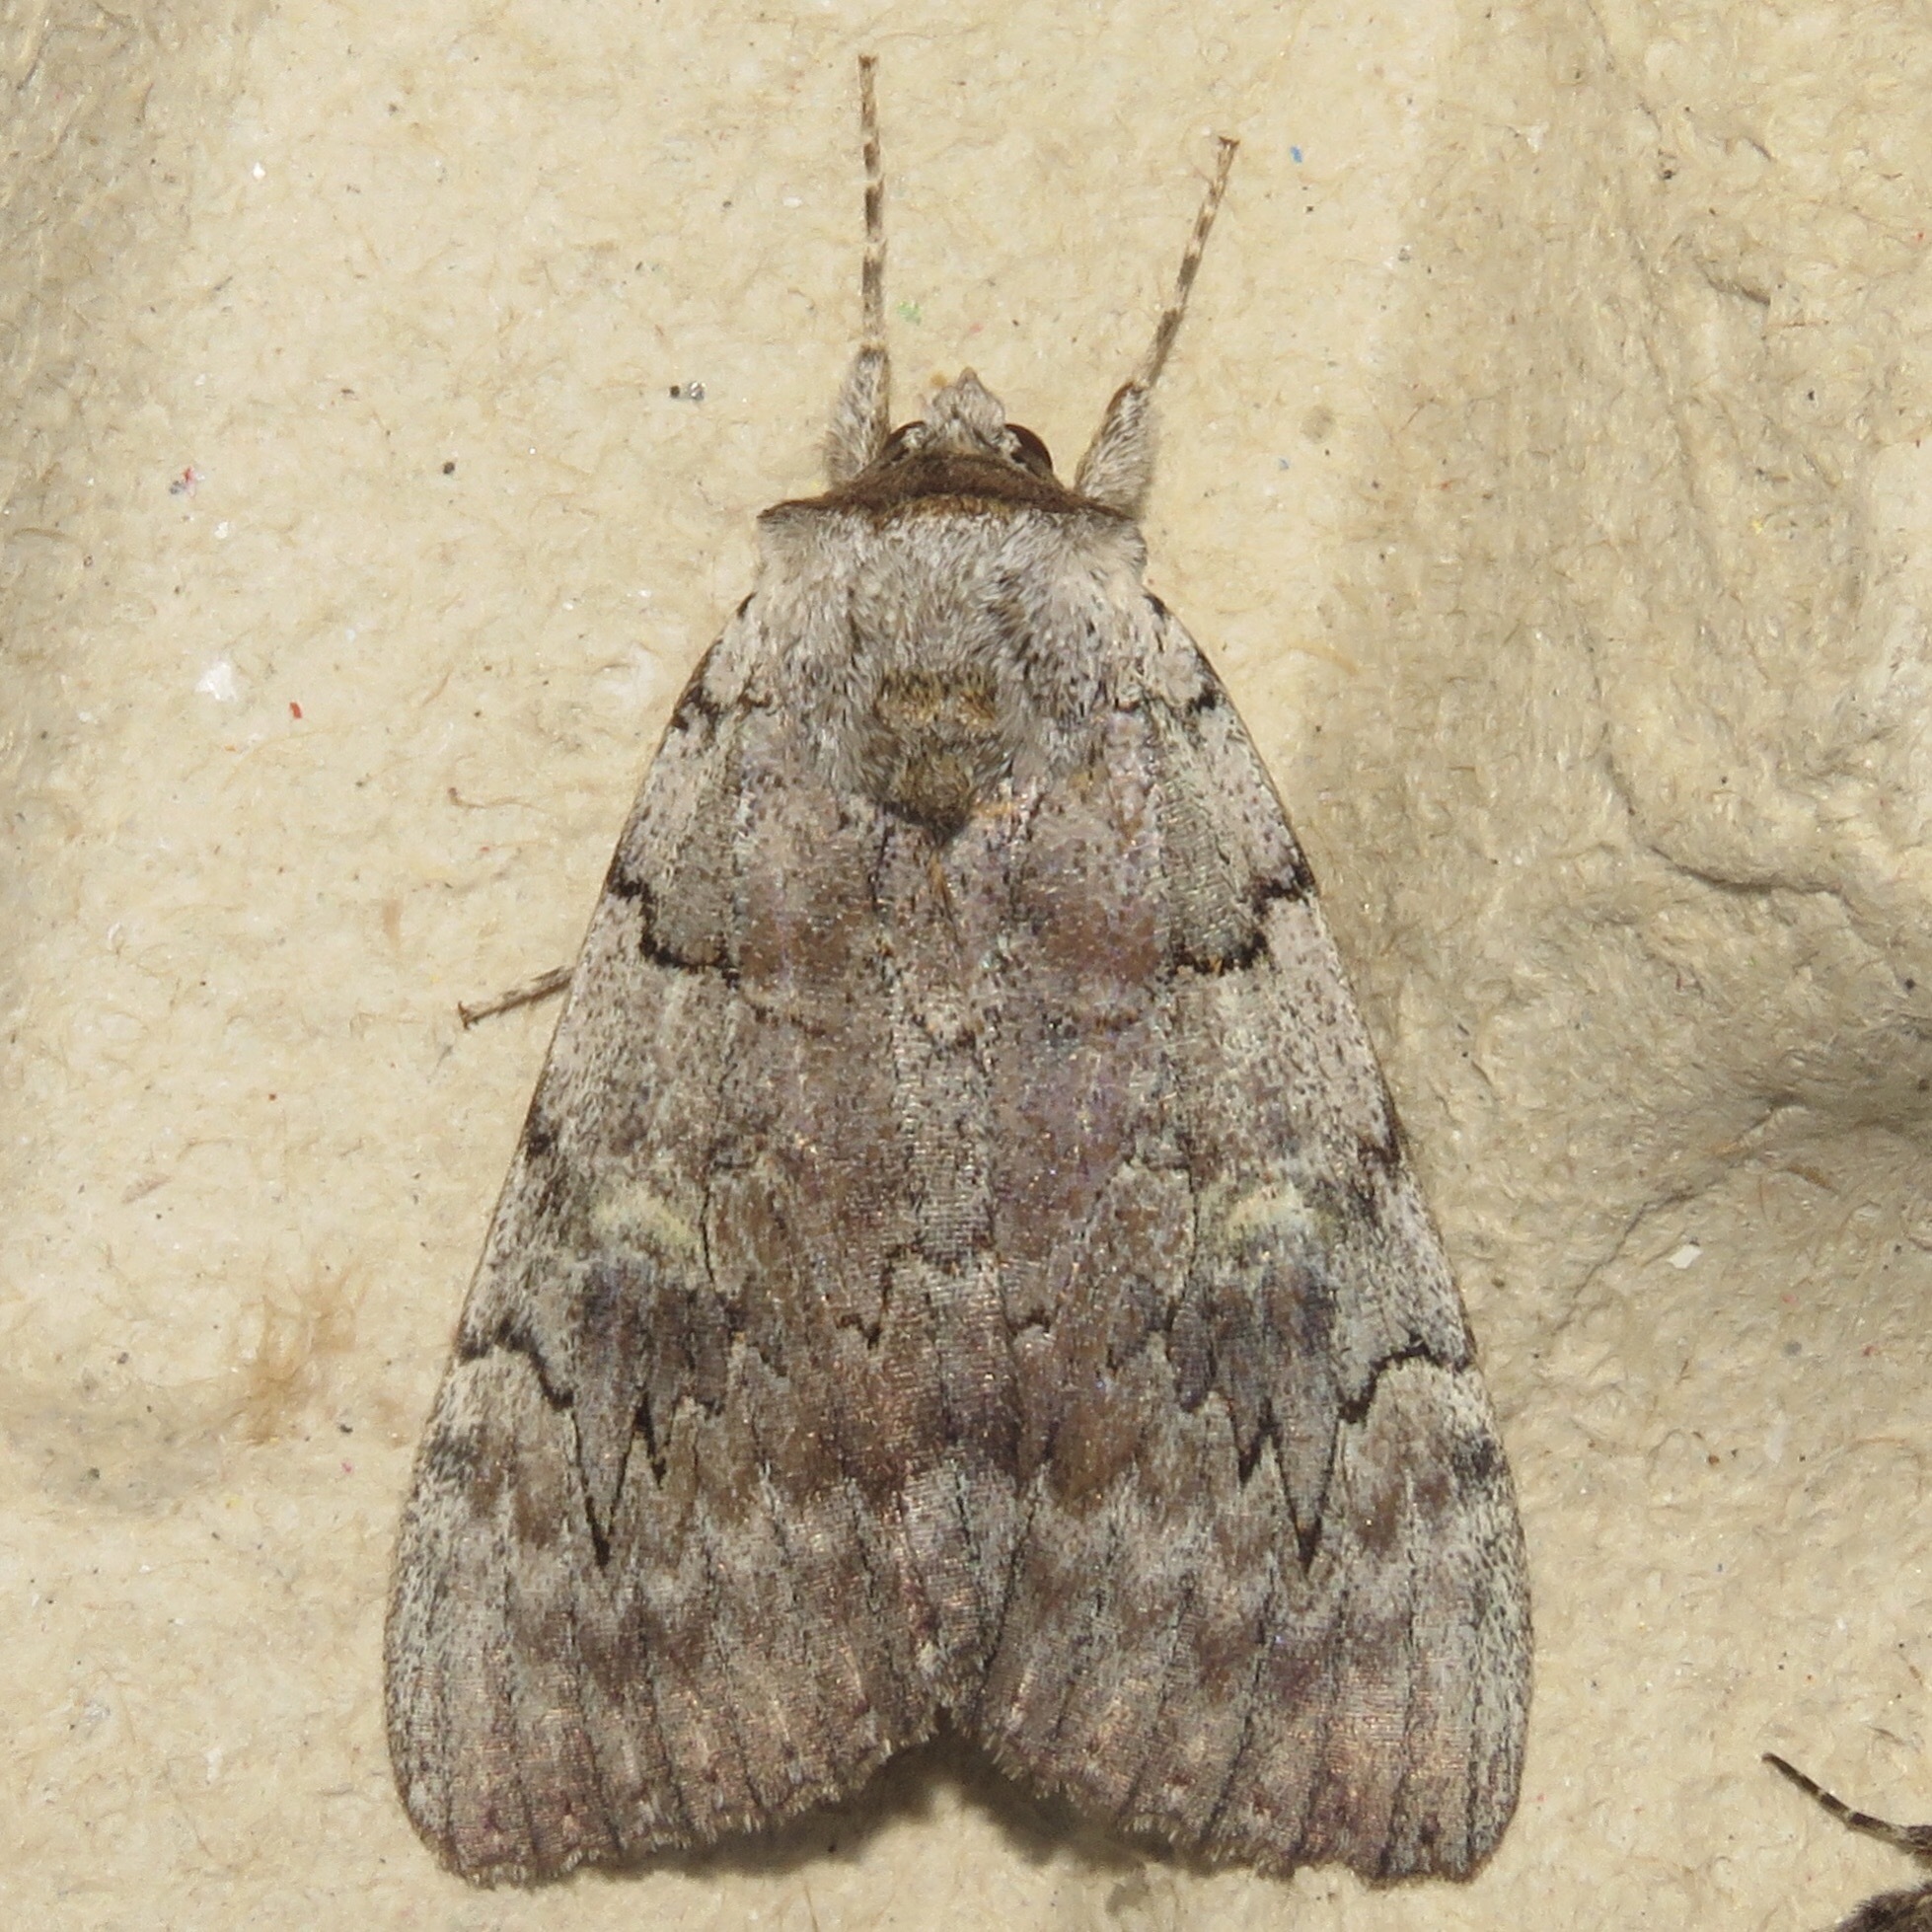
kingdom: Animalia
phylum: Arthropoda
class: Insecta
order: Lepidoptera
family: Erebidae
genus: Catocala
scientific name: Catocala concumbens
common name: Pink underwing
